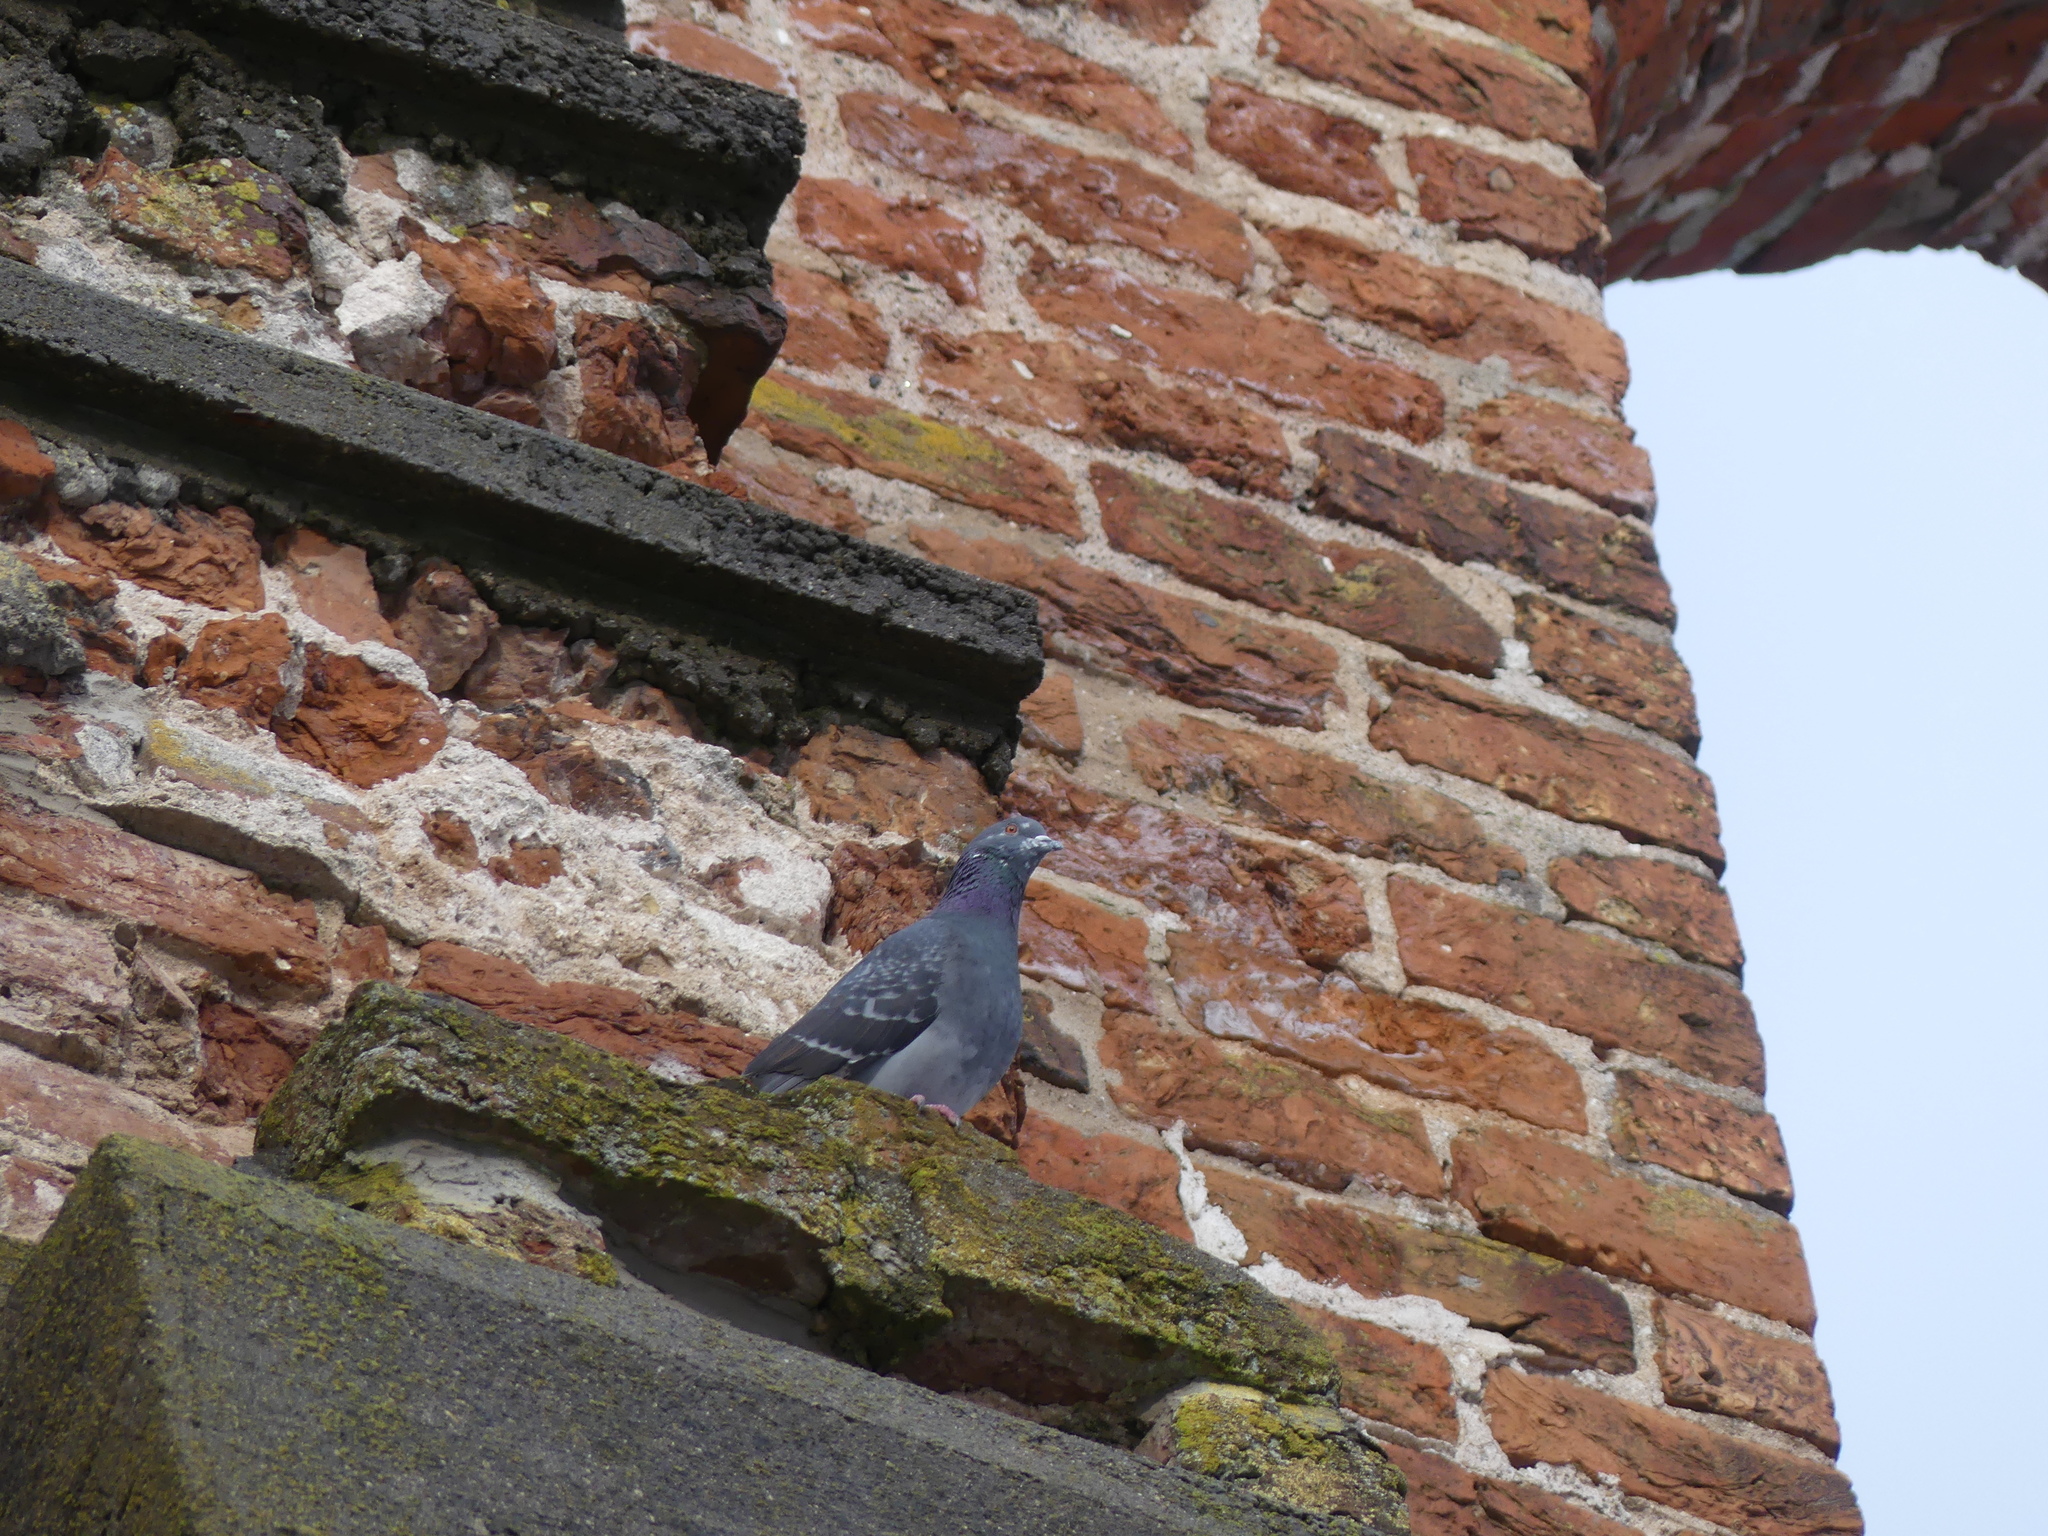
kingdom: Animalia
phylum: Chordata
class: Aves
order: Columbiformes
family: Columbidae
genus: Columba
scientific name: Columba livia
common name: Rock pigeon
